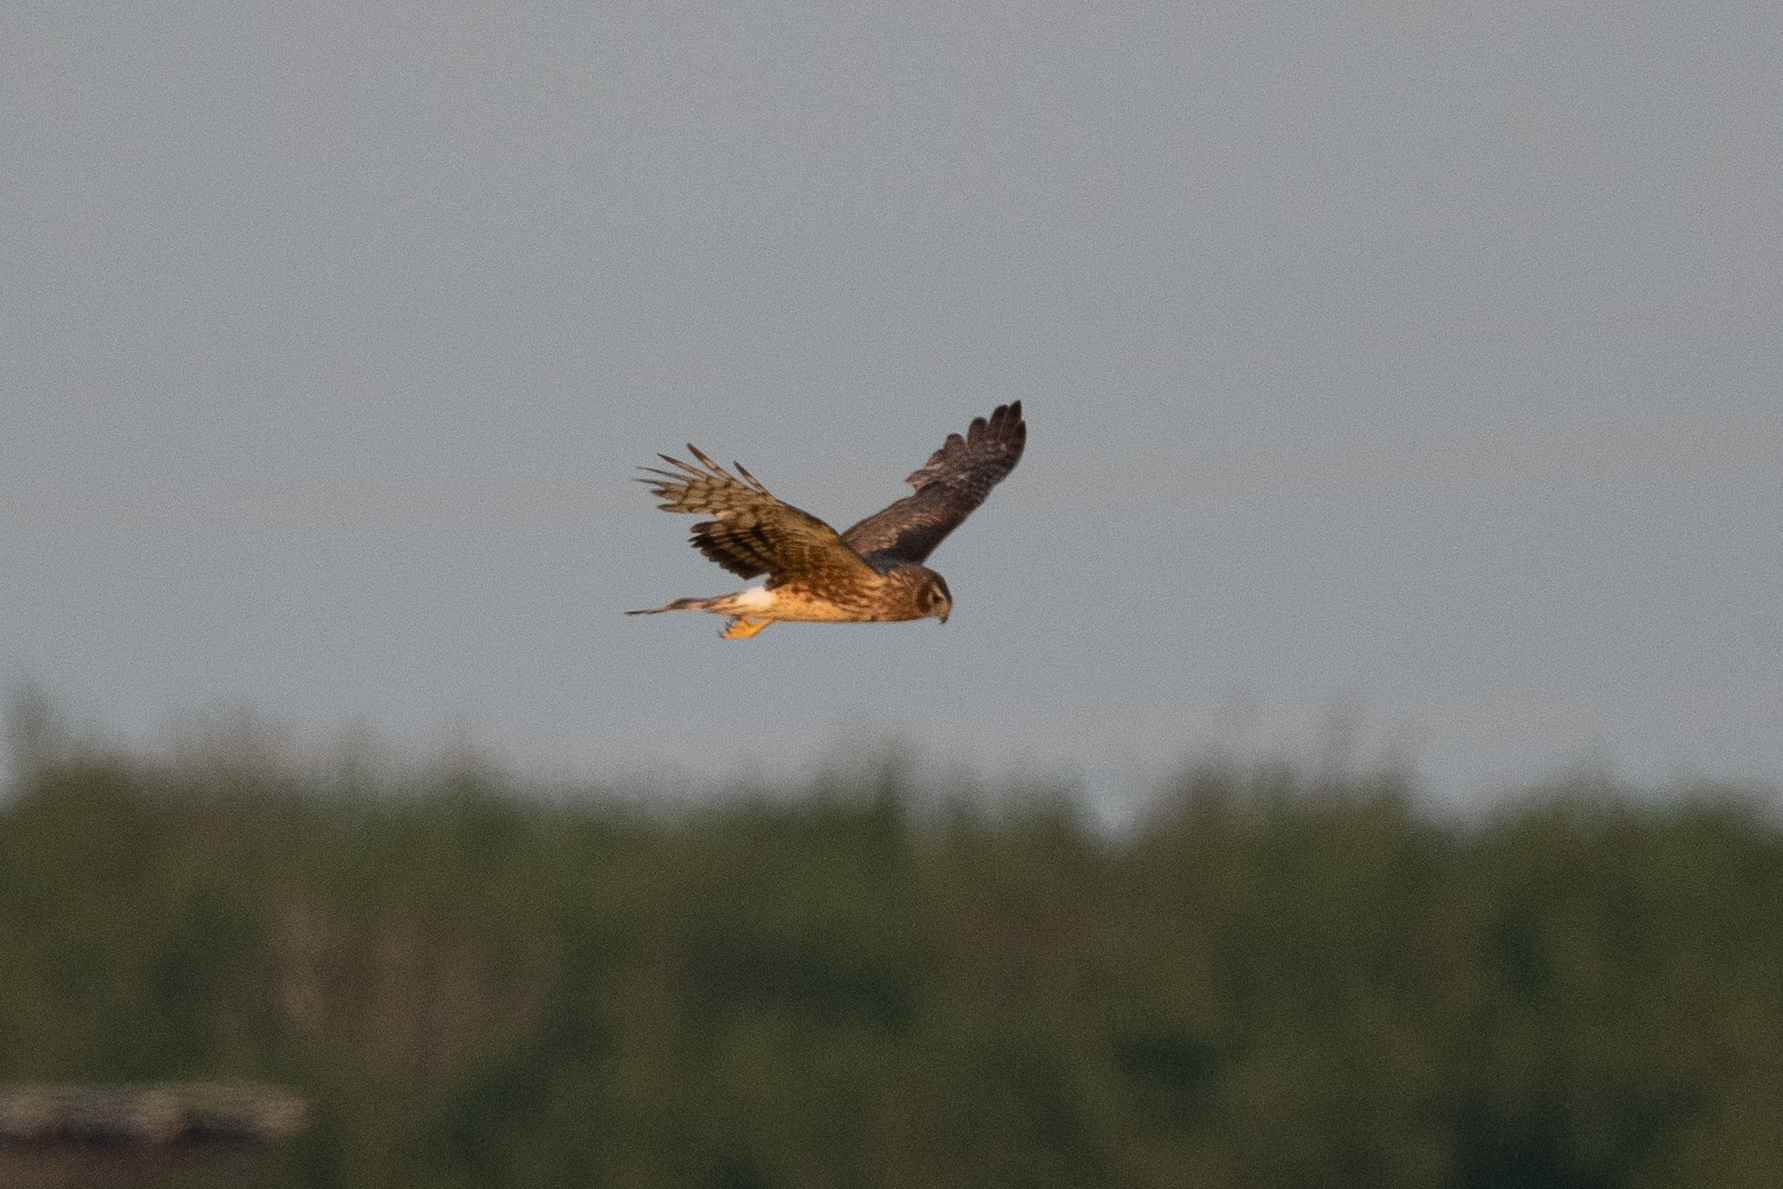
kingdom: Animalia
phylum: Chordata
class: Aves
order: Accipitriformes
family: Accipitridae
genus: Circus
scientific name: Circus cyaneus
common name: Hen harrier
